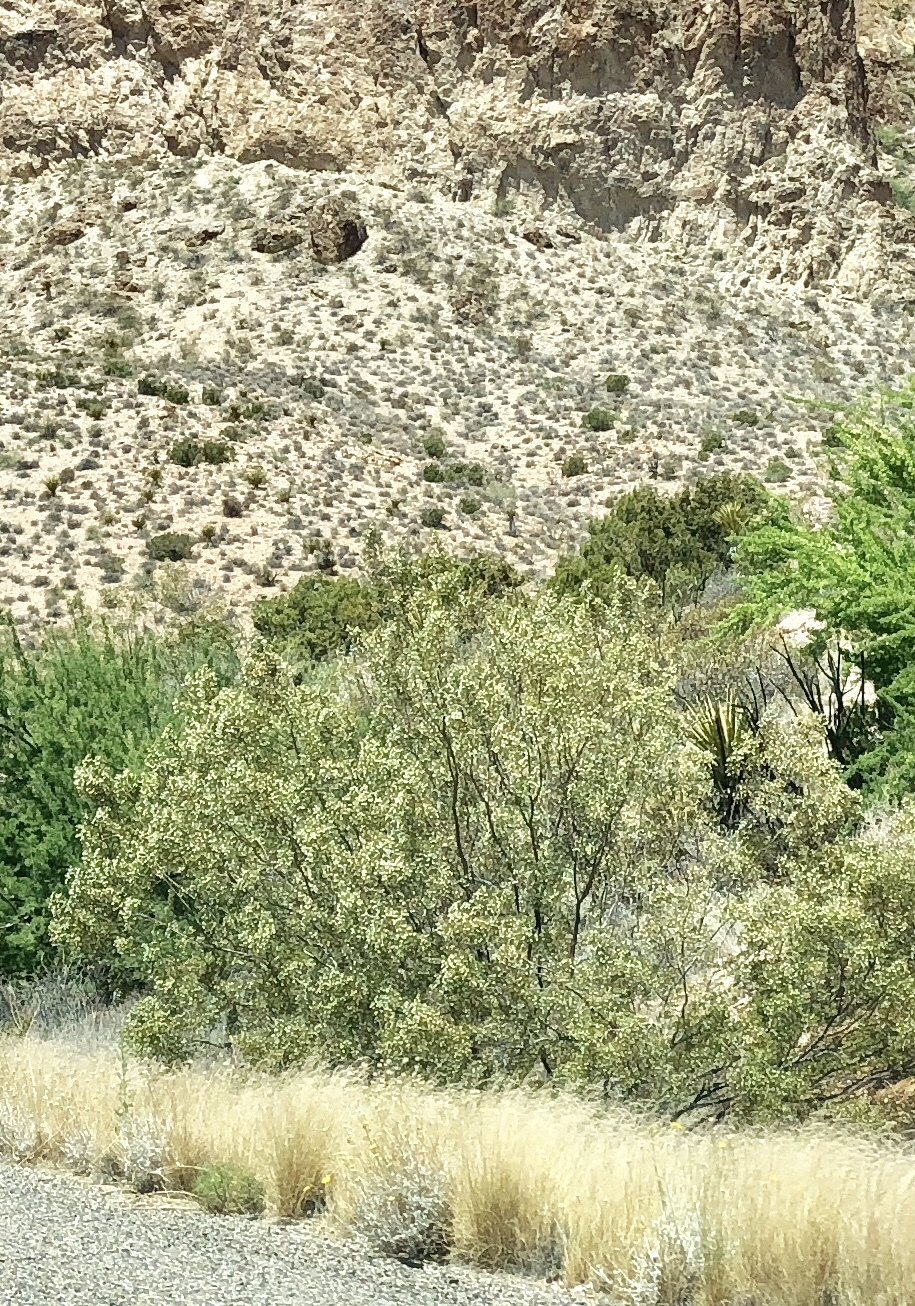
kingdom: Plantae
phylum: Tracheophyta
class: Magnoliopsida
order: Zygophyllales
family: Zygophyllaceae
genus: Larrea
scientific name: Larrea tridentata
